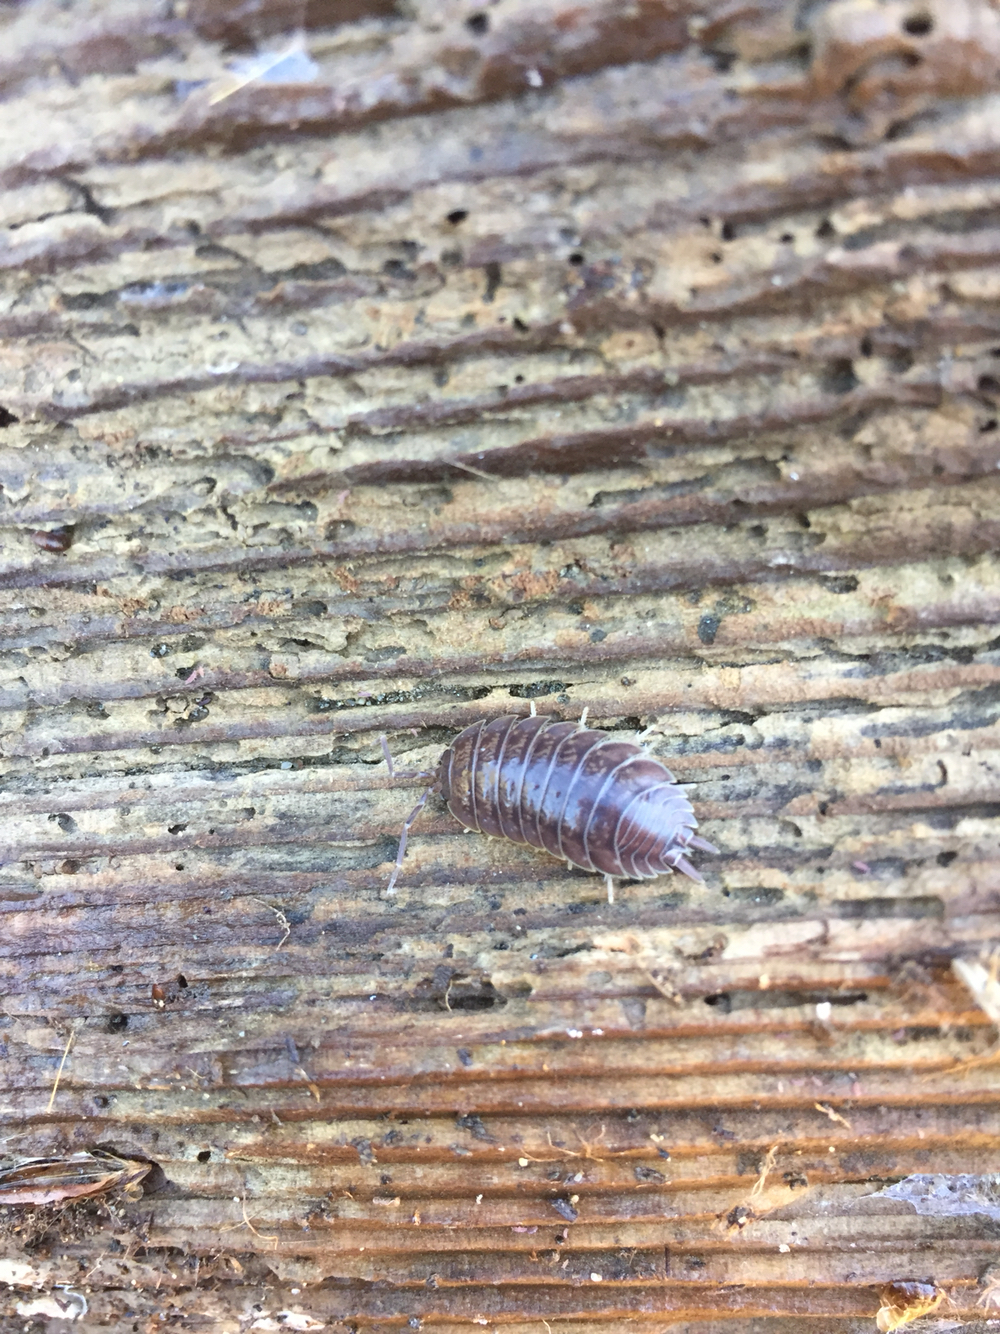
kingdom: Animalia
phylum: Arthropoda
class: Malacostraca
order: Isopoda
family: Porcellionidae
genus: Porcellio
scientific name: Porcellio laevis
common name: Swift woodlouse
